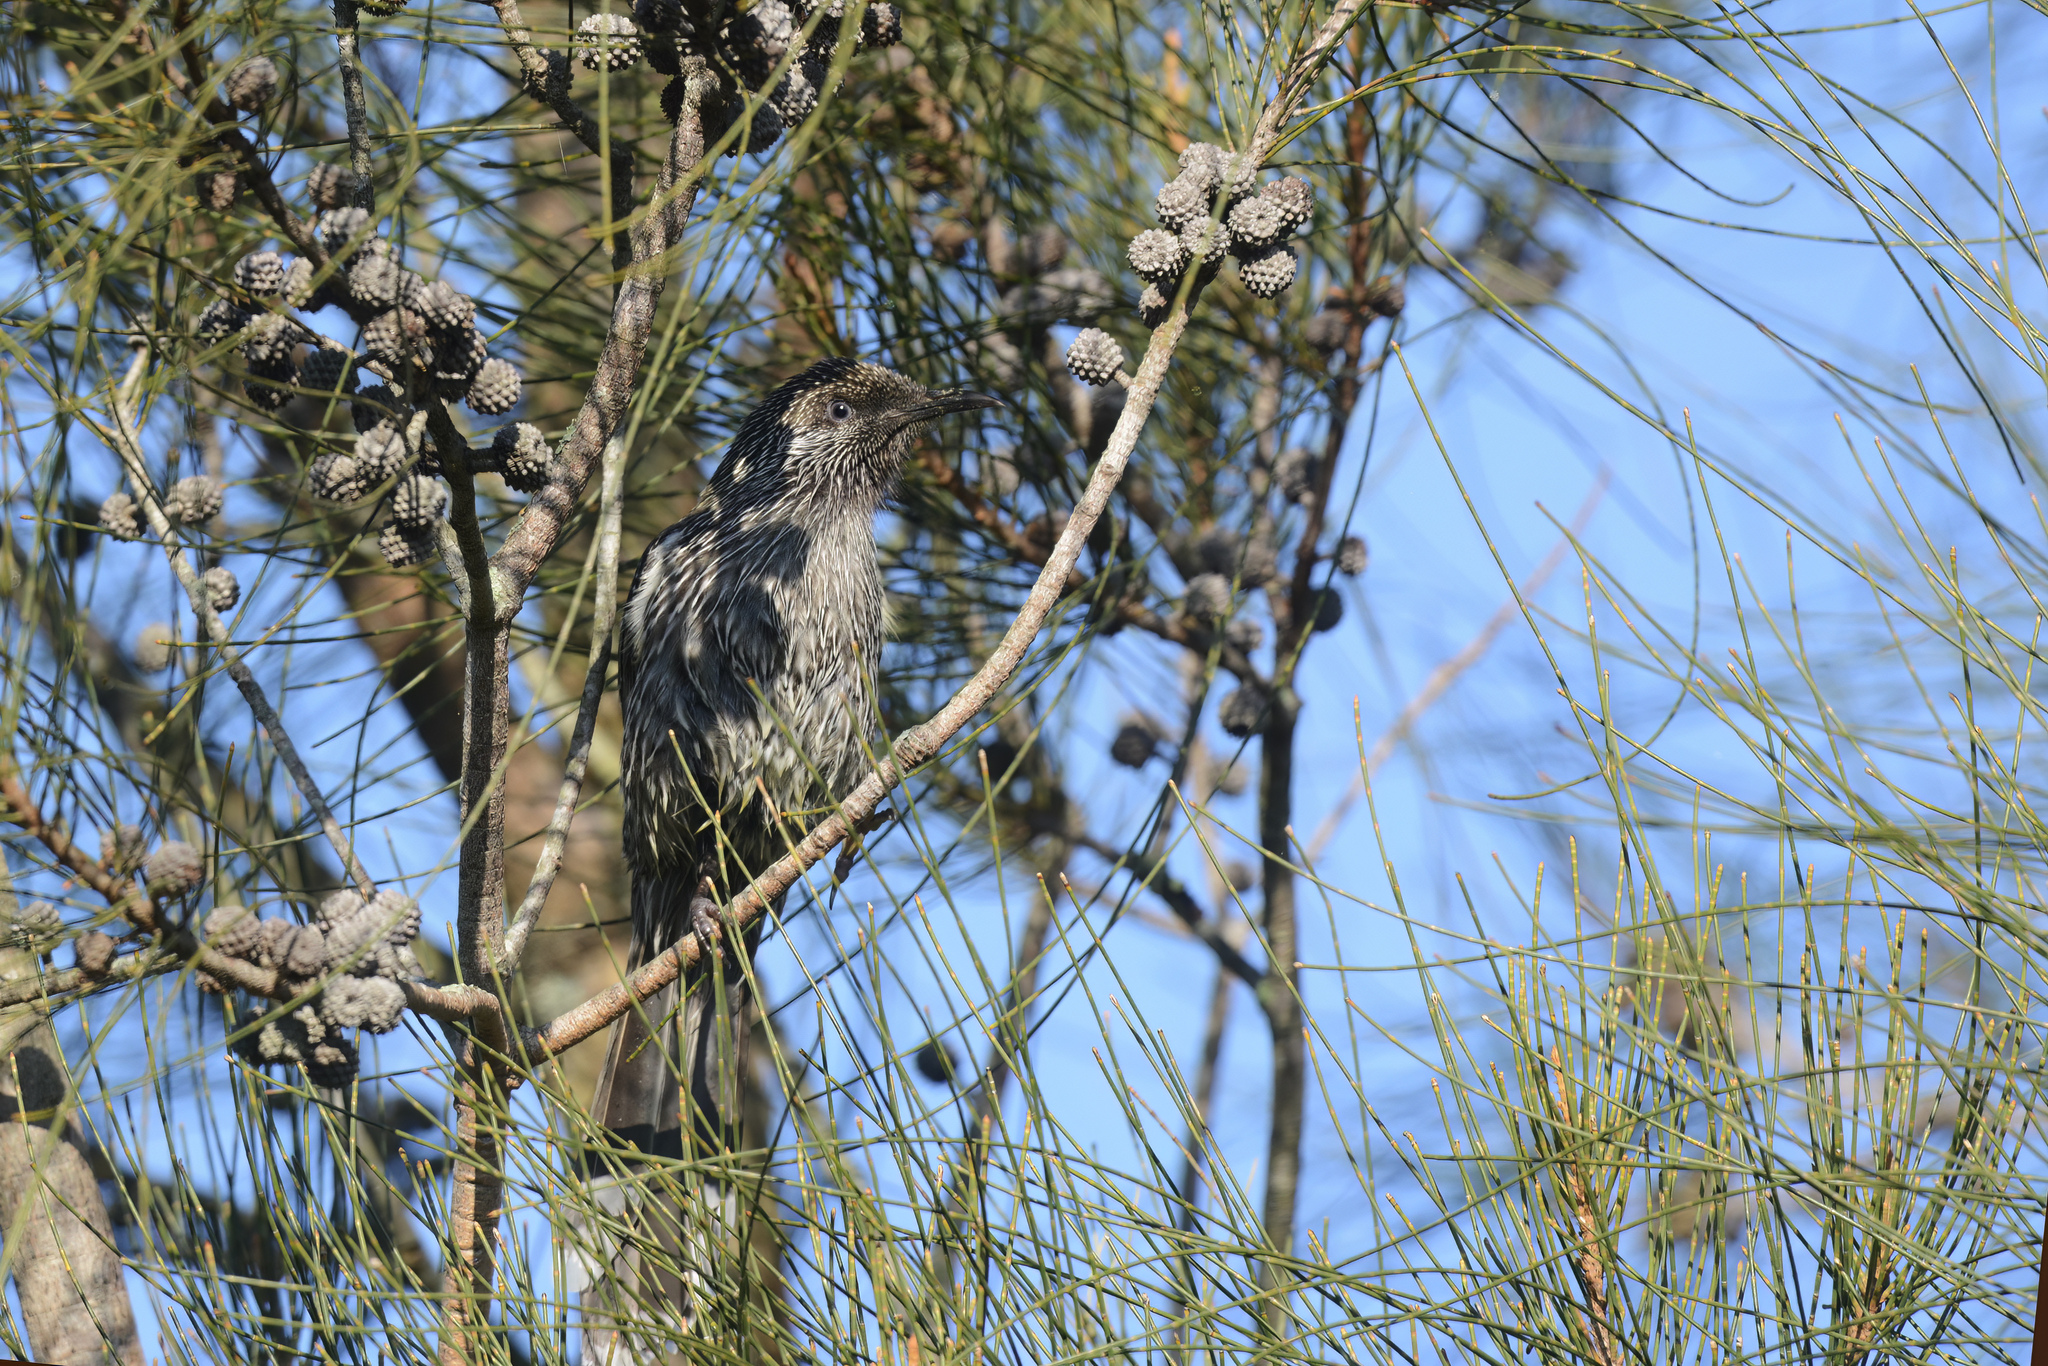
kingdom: Animalia
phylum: Chordata
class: Aves
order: Passeriformes
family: Meliphagidae
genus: Anthochaera
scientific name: Anthochaera chrysoptera
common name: Little wattlebird
